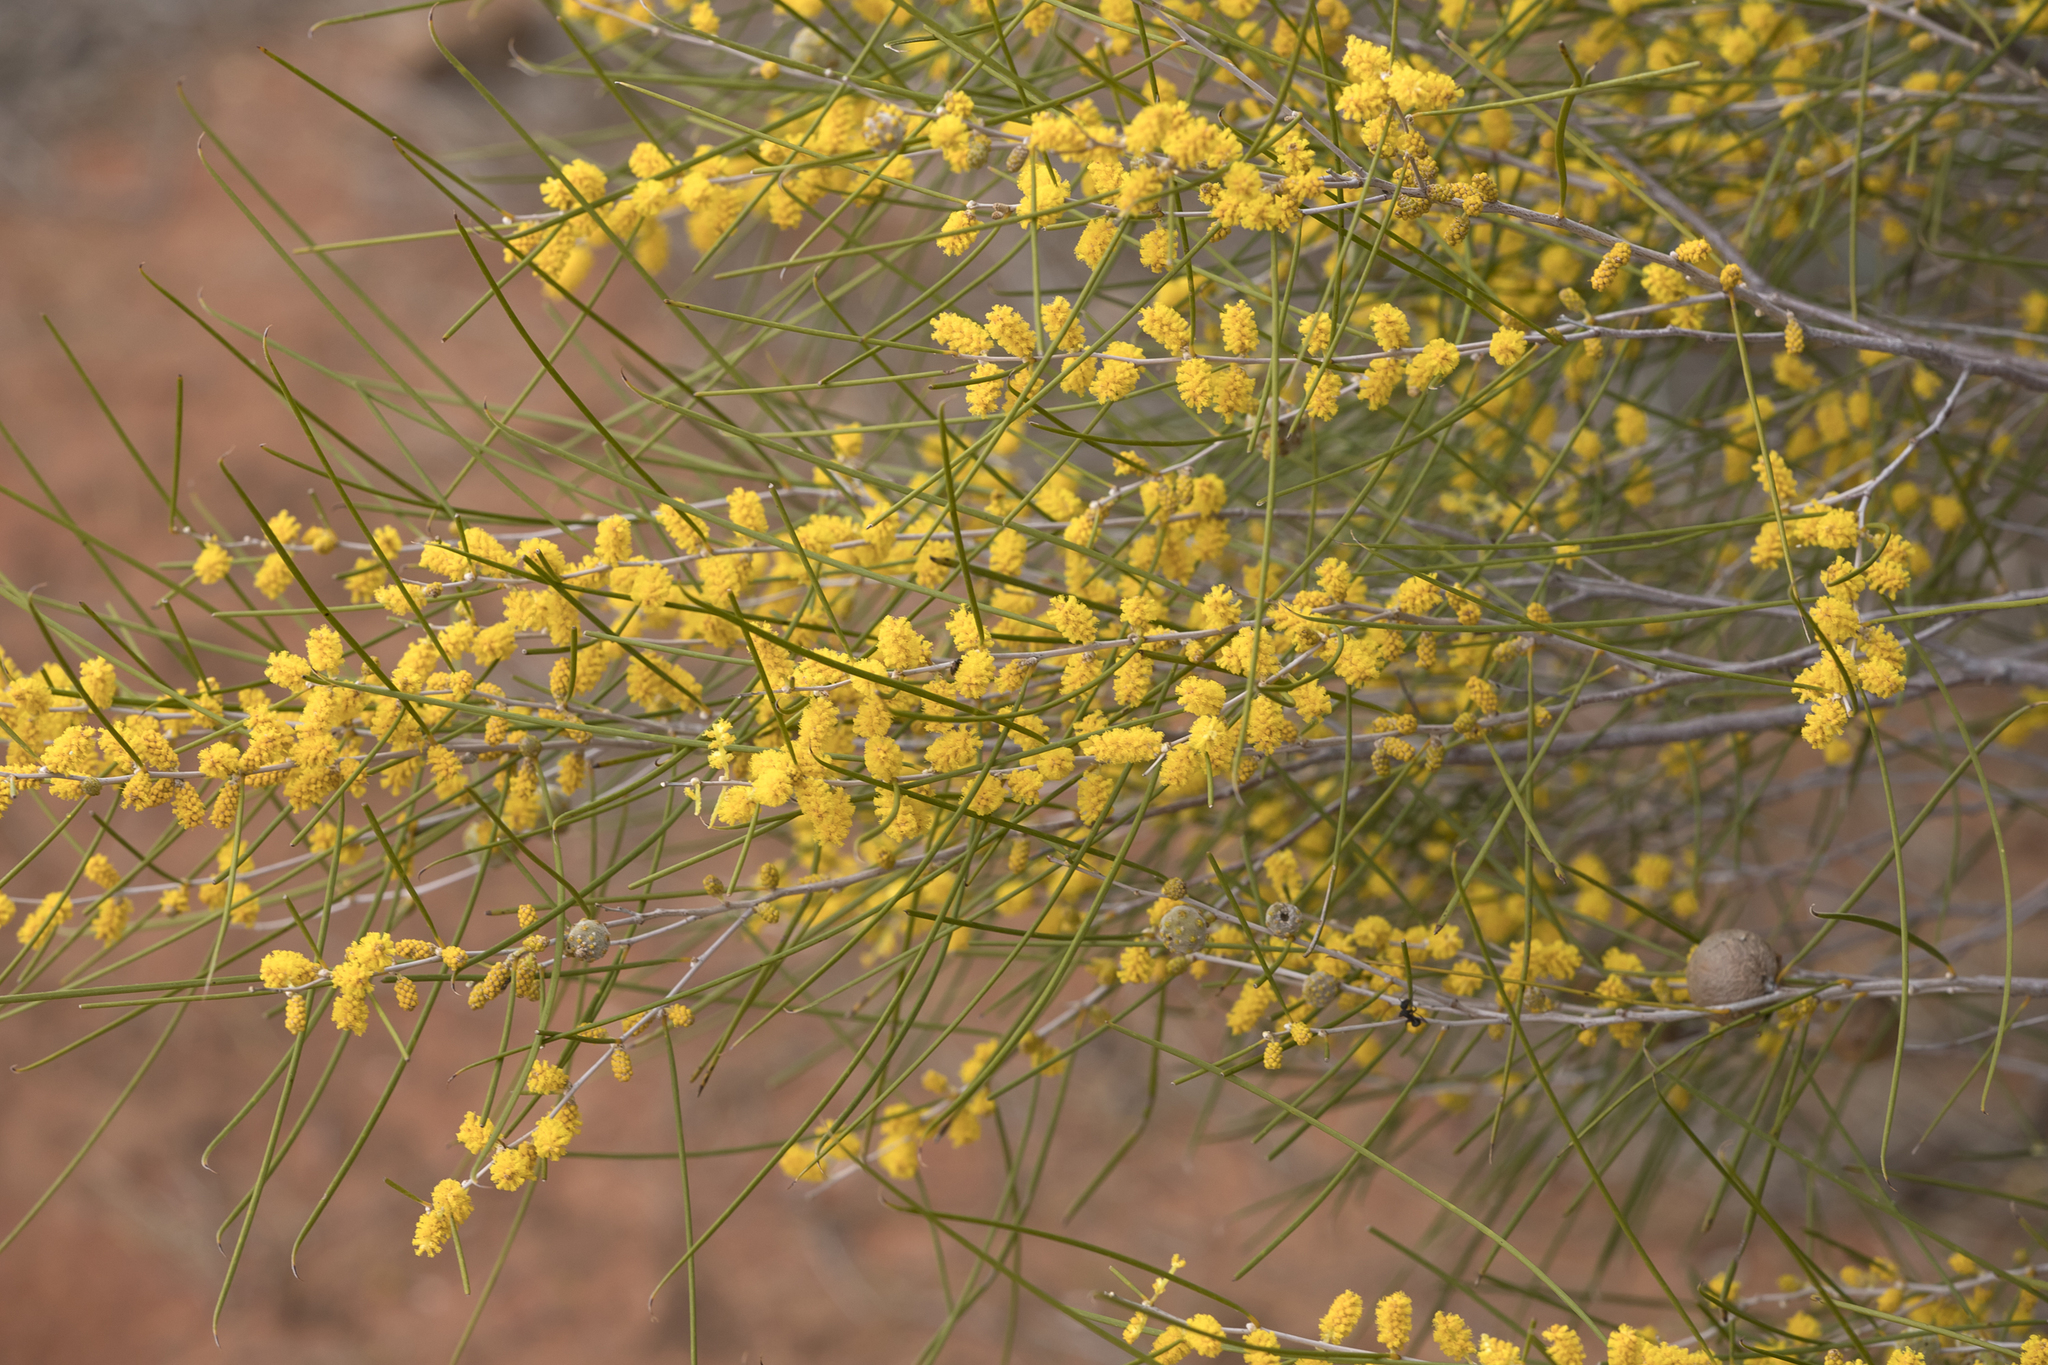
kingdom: Plantae
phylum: Tracheophyta
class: Magnoliopsida
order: Fabales
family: Fabaceae
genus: Acacia
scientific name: Acacia burkittii
